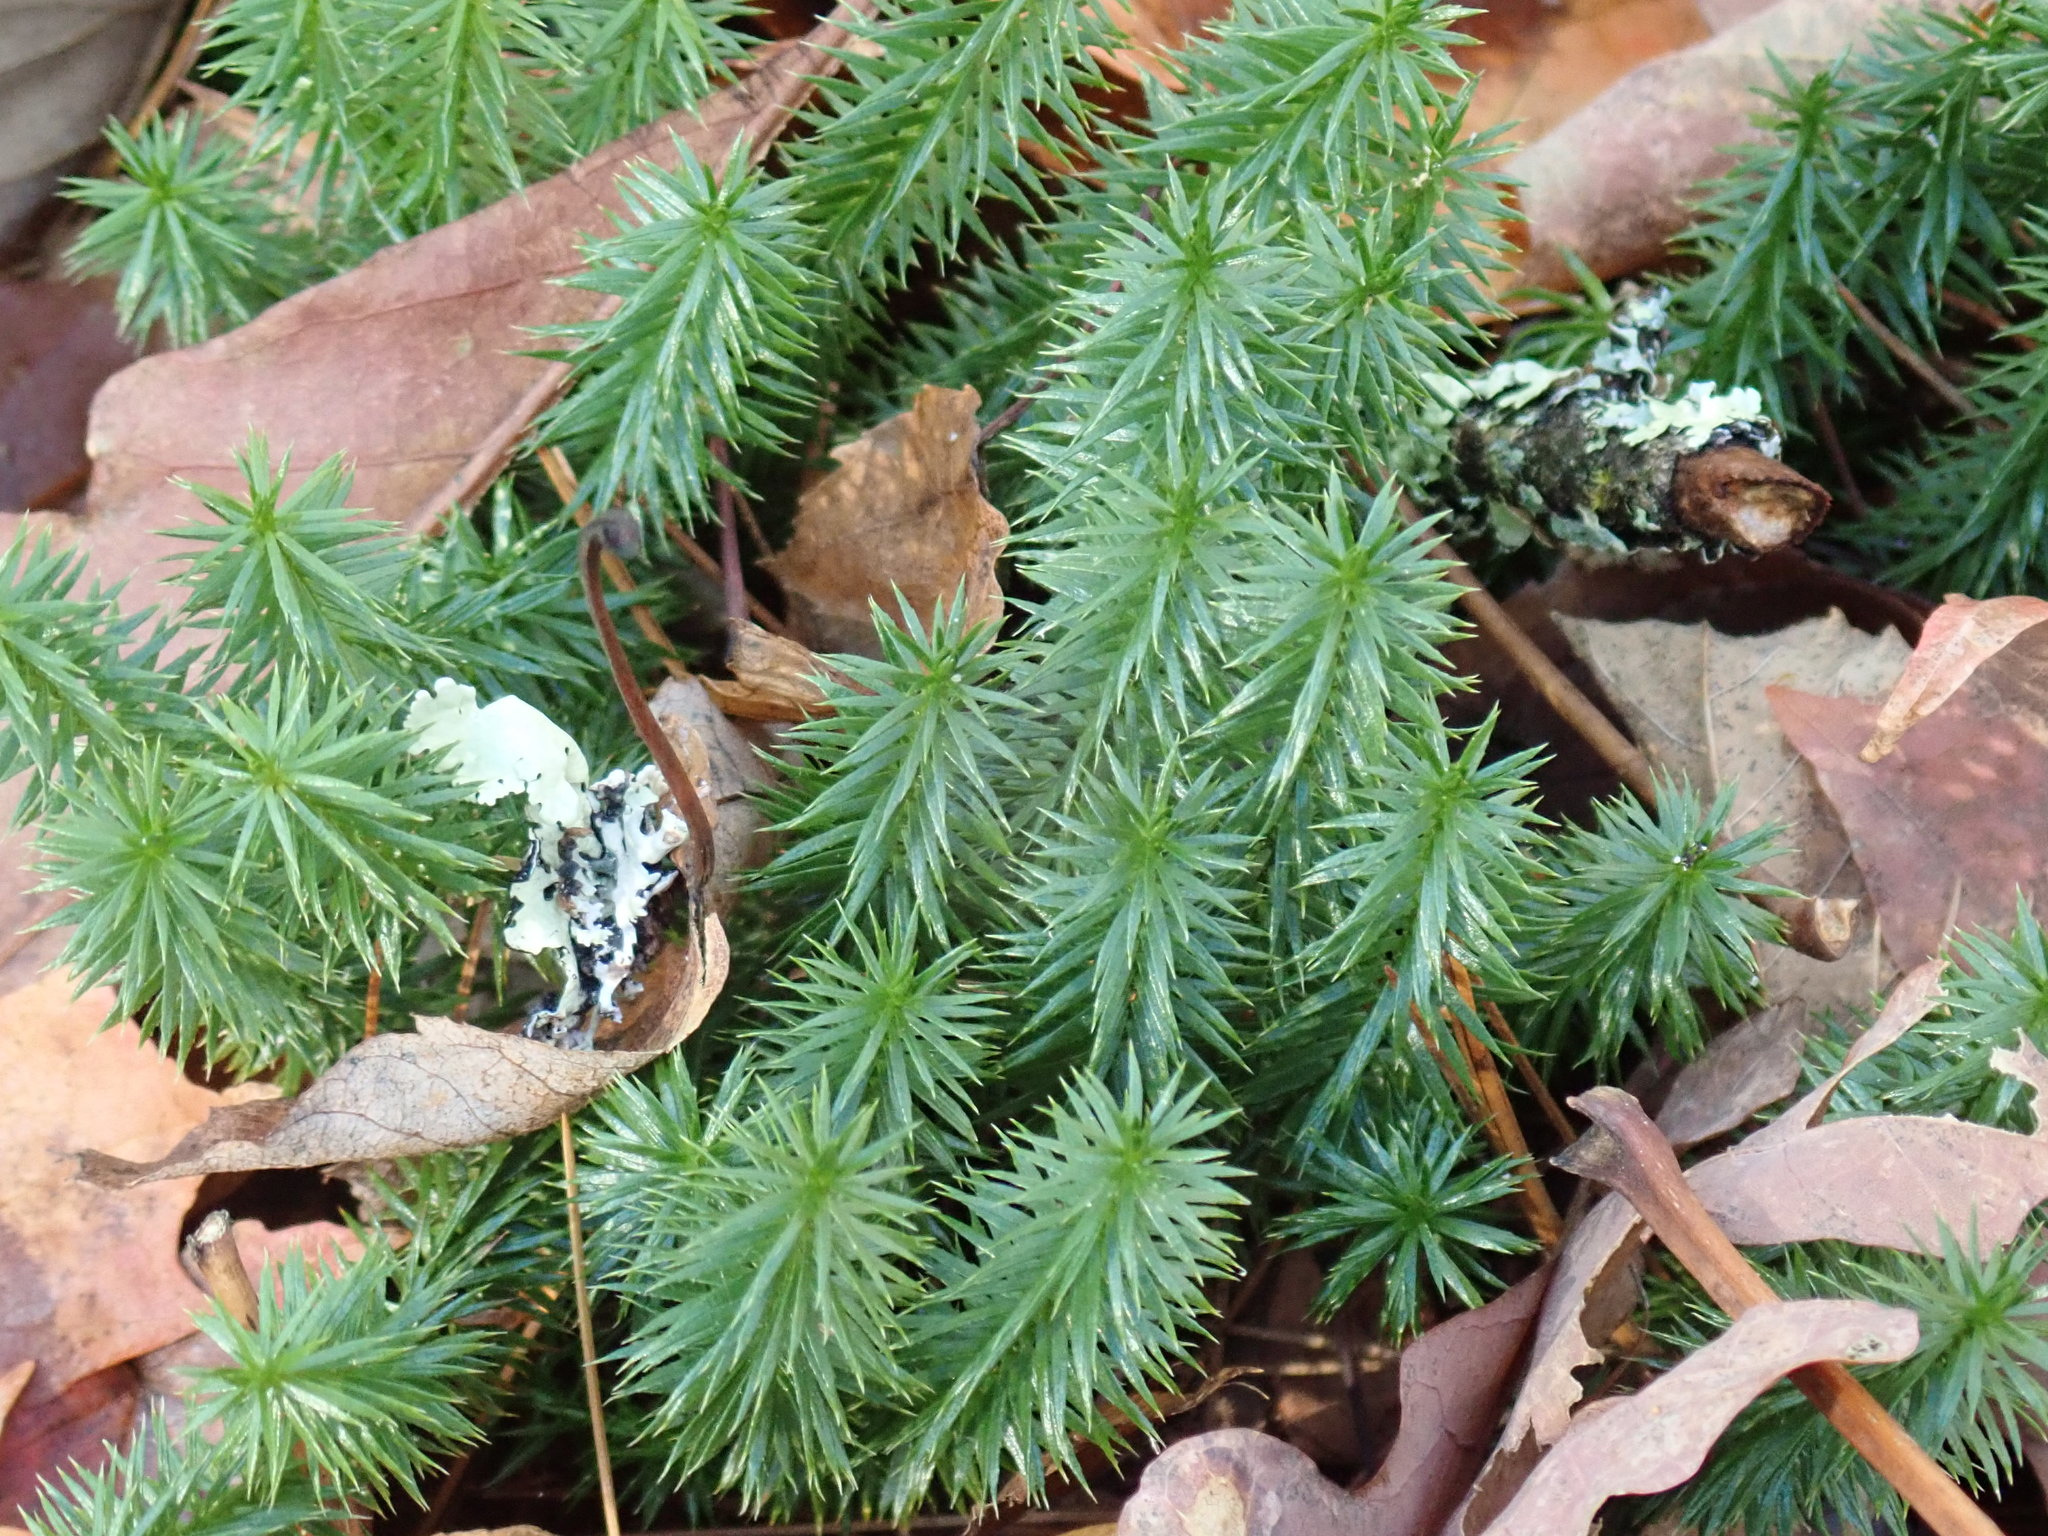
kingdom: Plantae
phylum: Tracheophyta
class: Lycopodiopsida
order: Lycopodiales
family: Lycopodiaceae
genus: Spinulum
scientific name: Spinulum annotinum
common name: Interrupted club-moss
